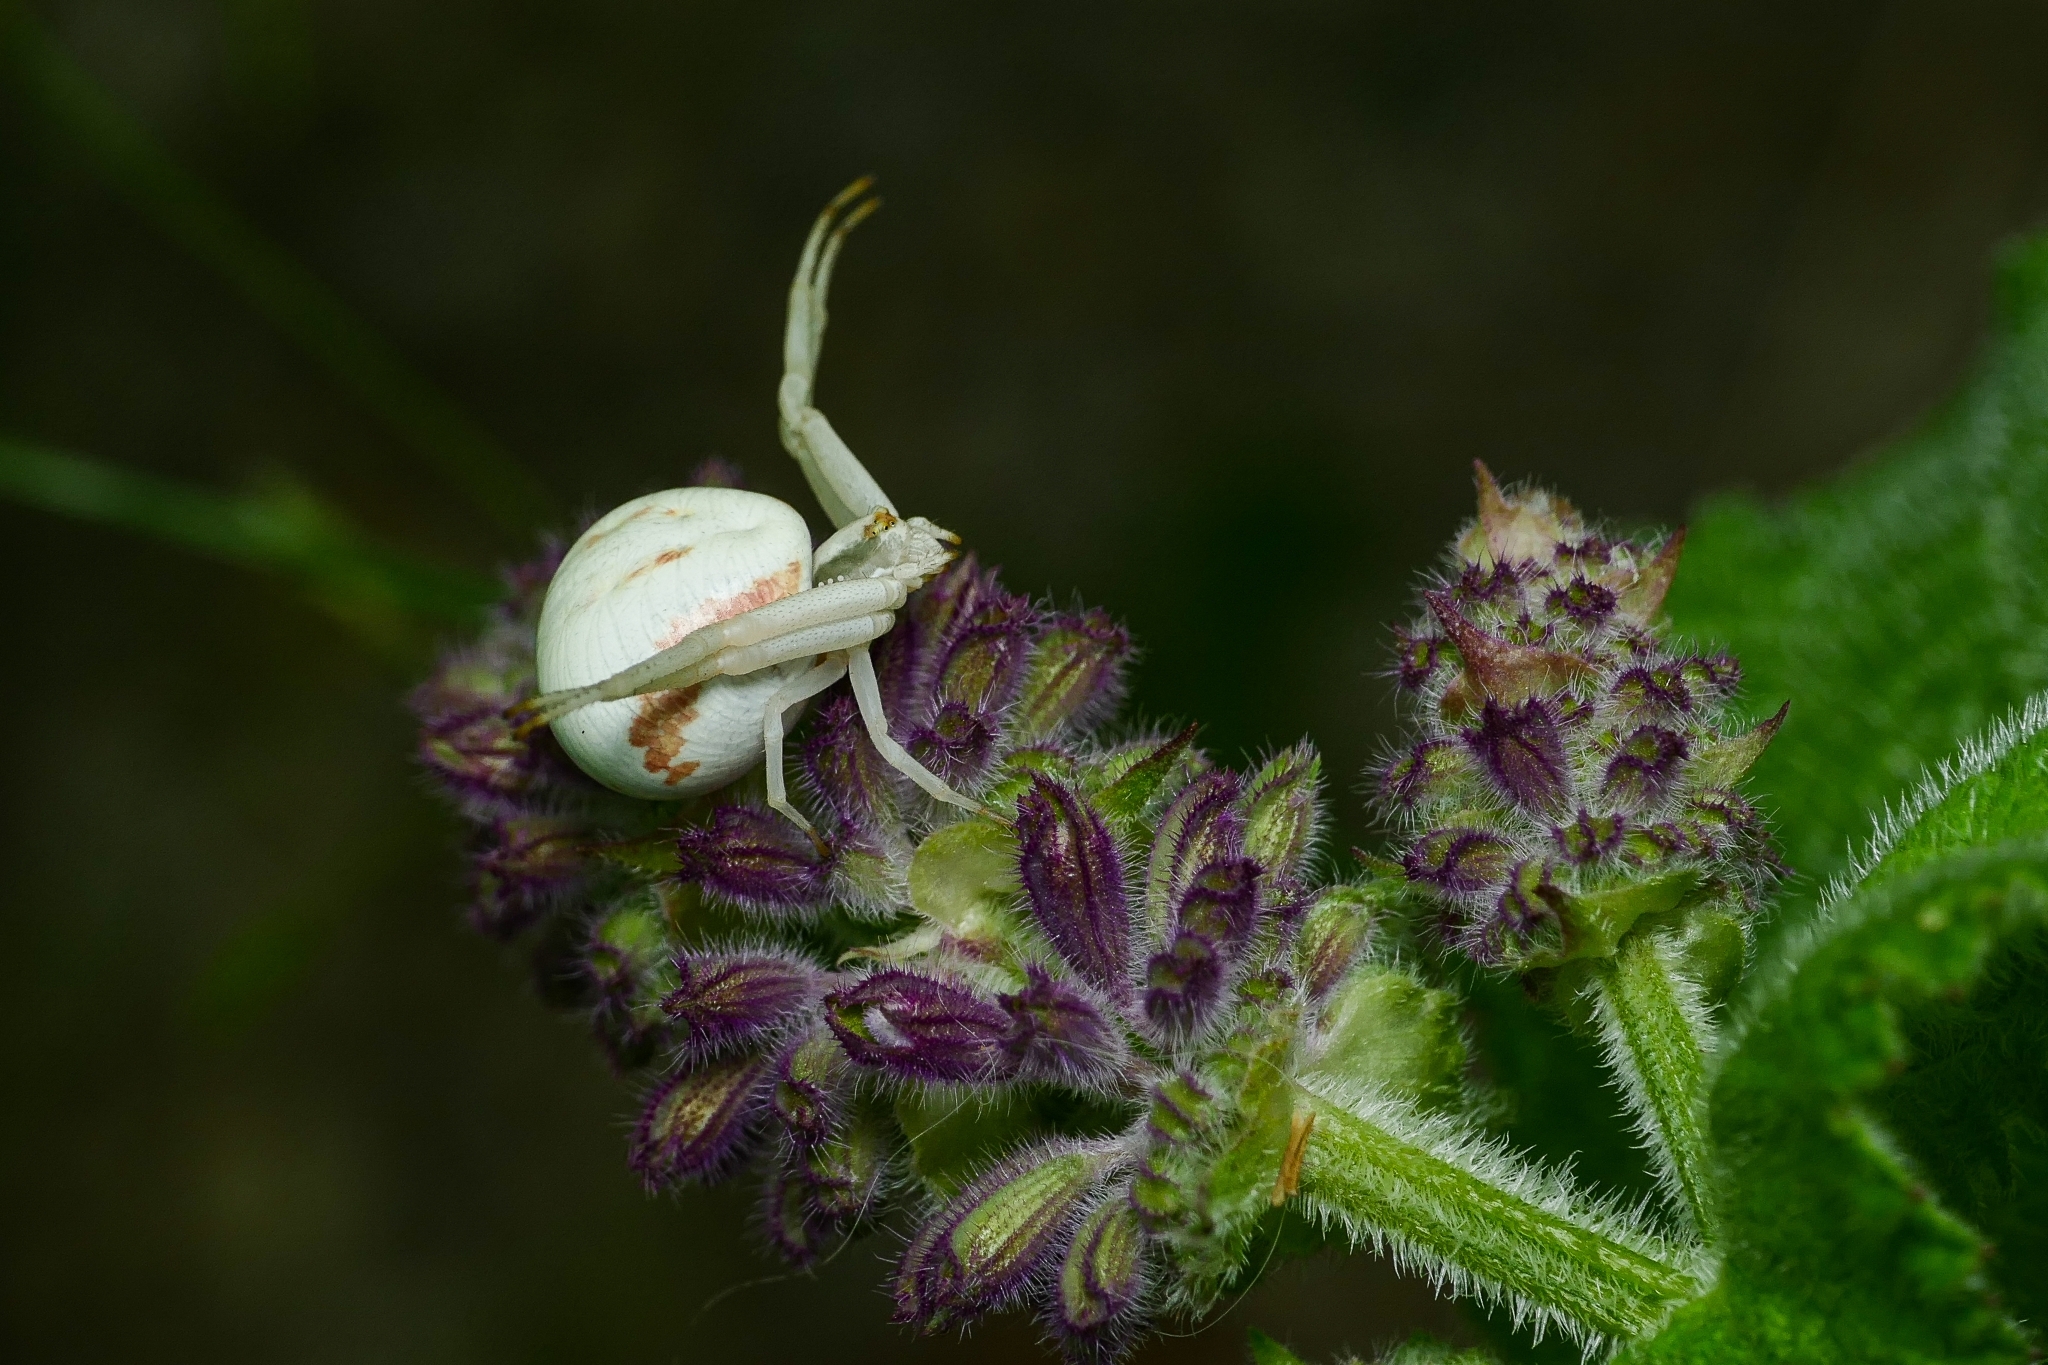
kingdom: Animalia
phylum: Arthropoda
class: Arachnida
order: Araneae
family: Thomisidae
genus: Misumena
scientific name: Misumena vatia
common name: Goldenrod crab spider
